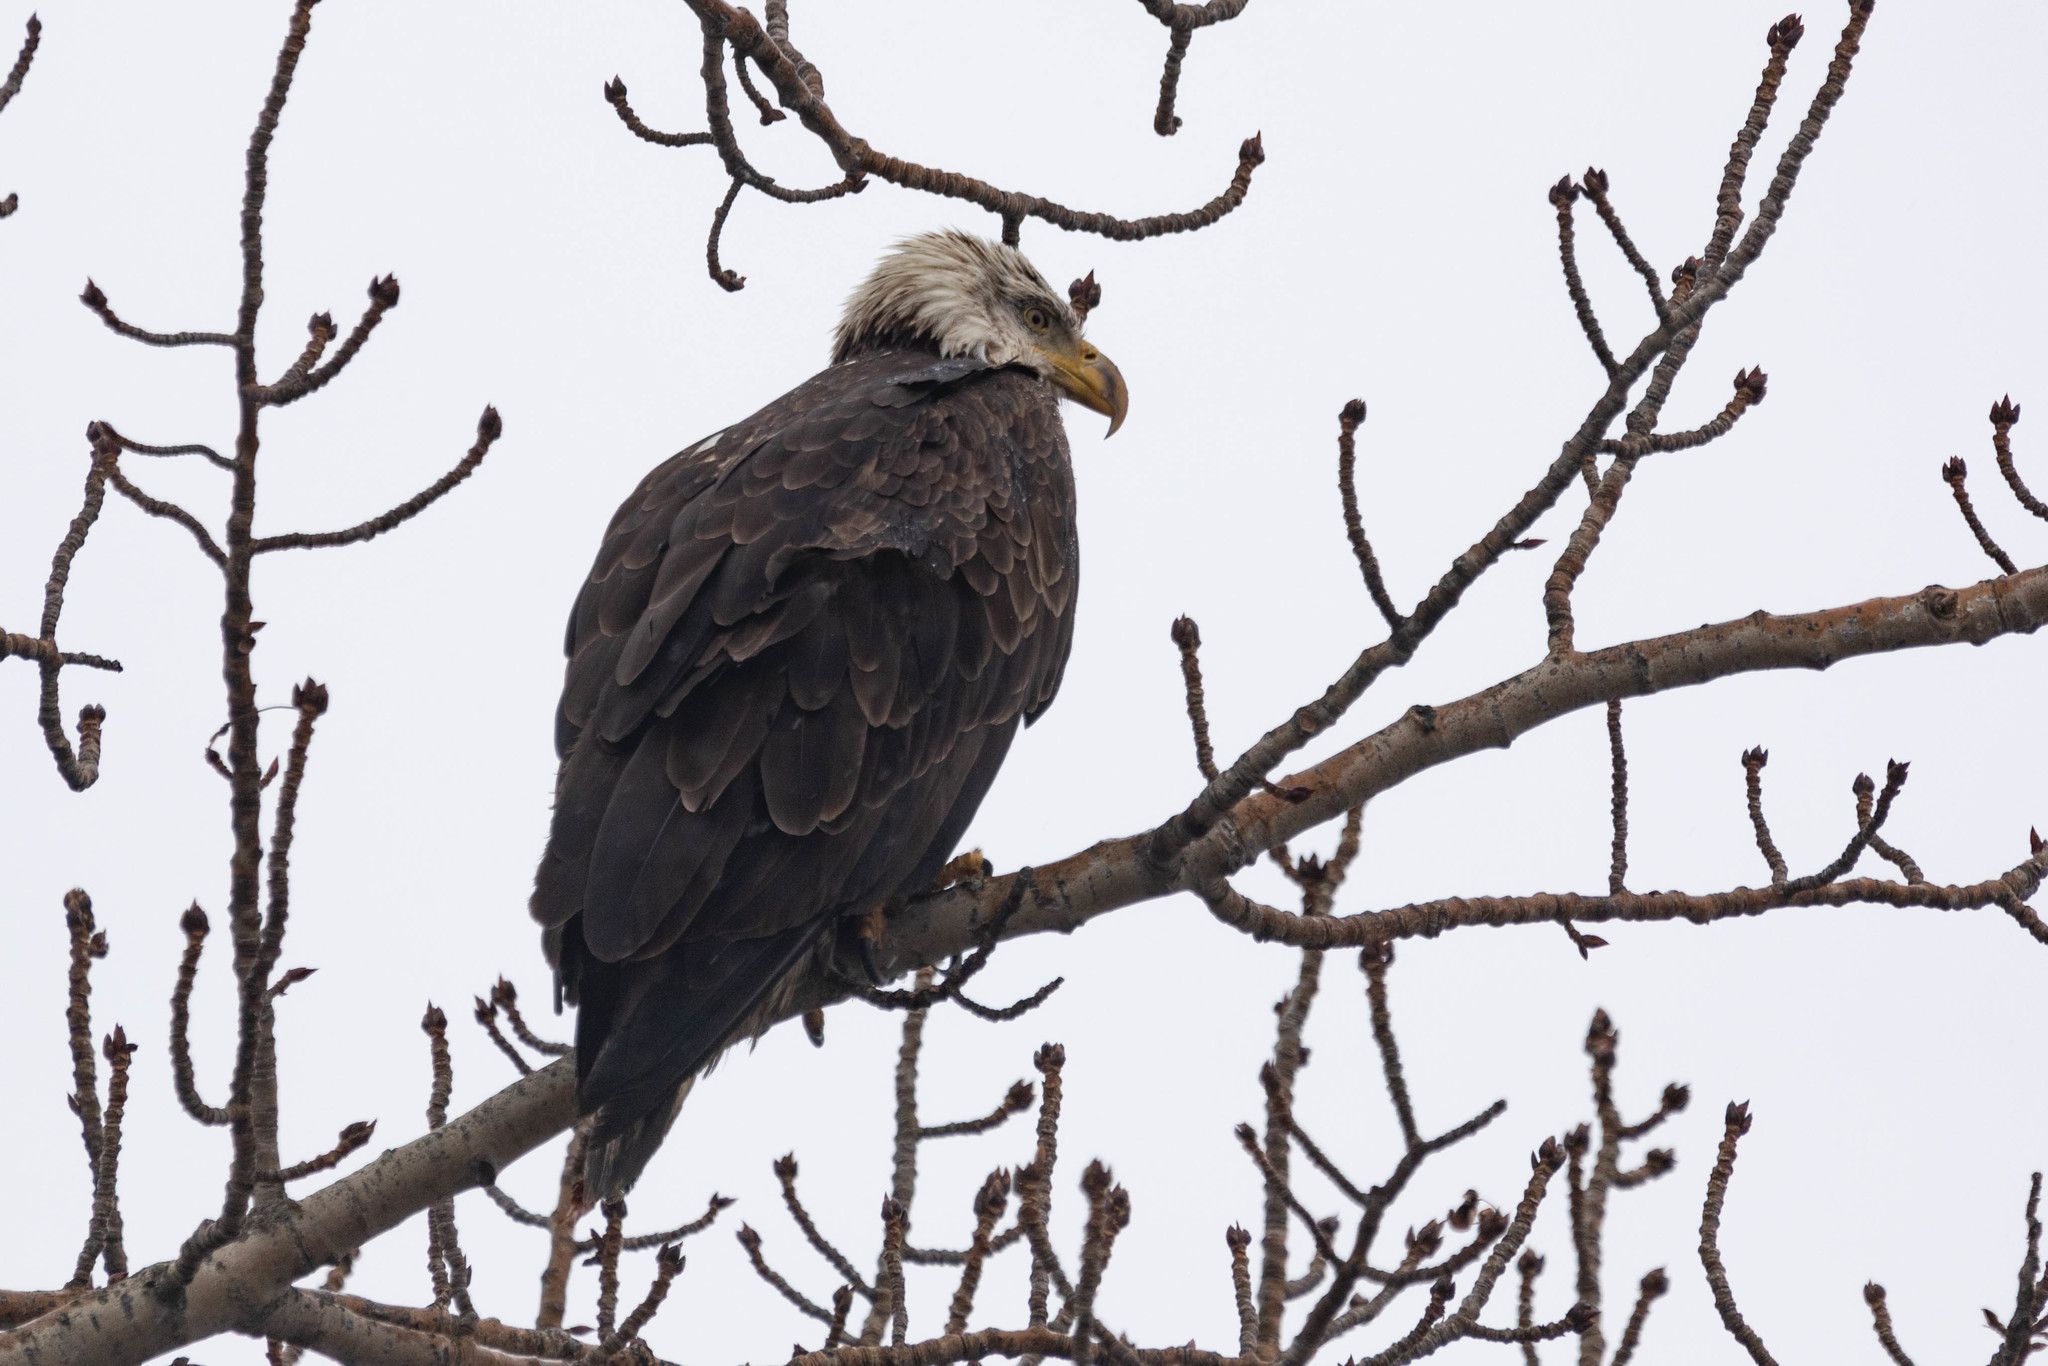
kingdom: Animalia
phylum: Chordata
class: Aves
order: Accipitriformes
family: Accipitridae
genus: Haliaeetus
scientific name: Haliaeetus leucocephalus
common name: Bald eagle
